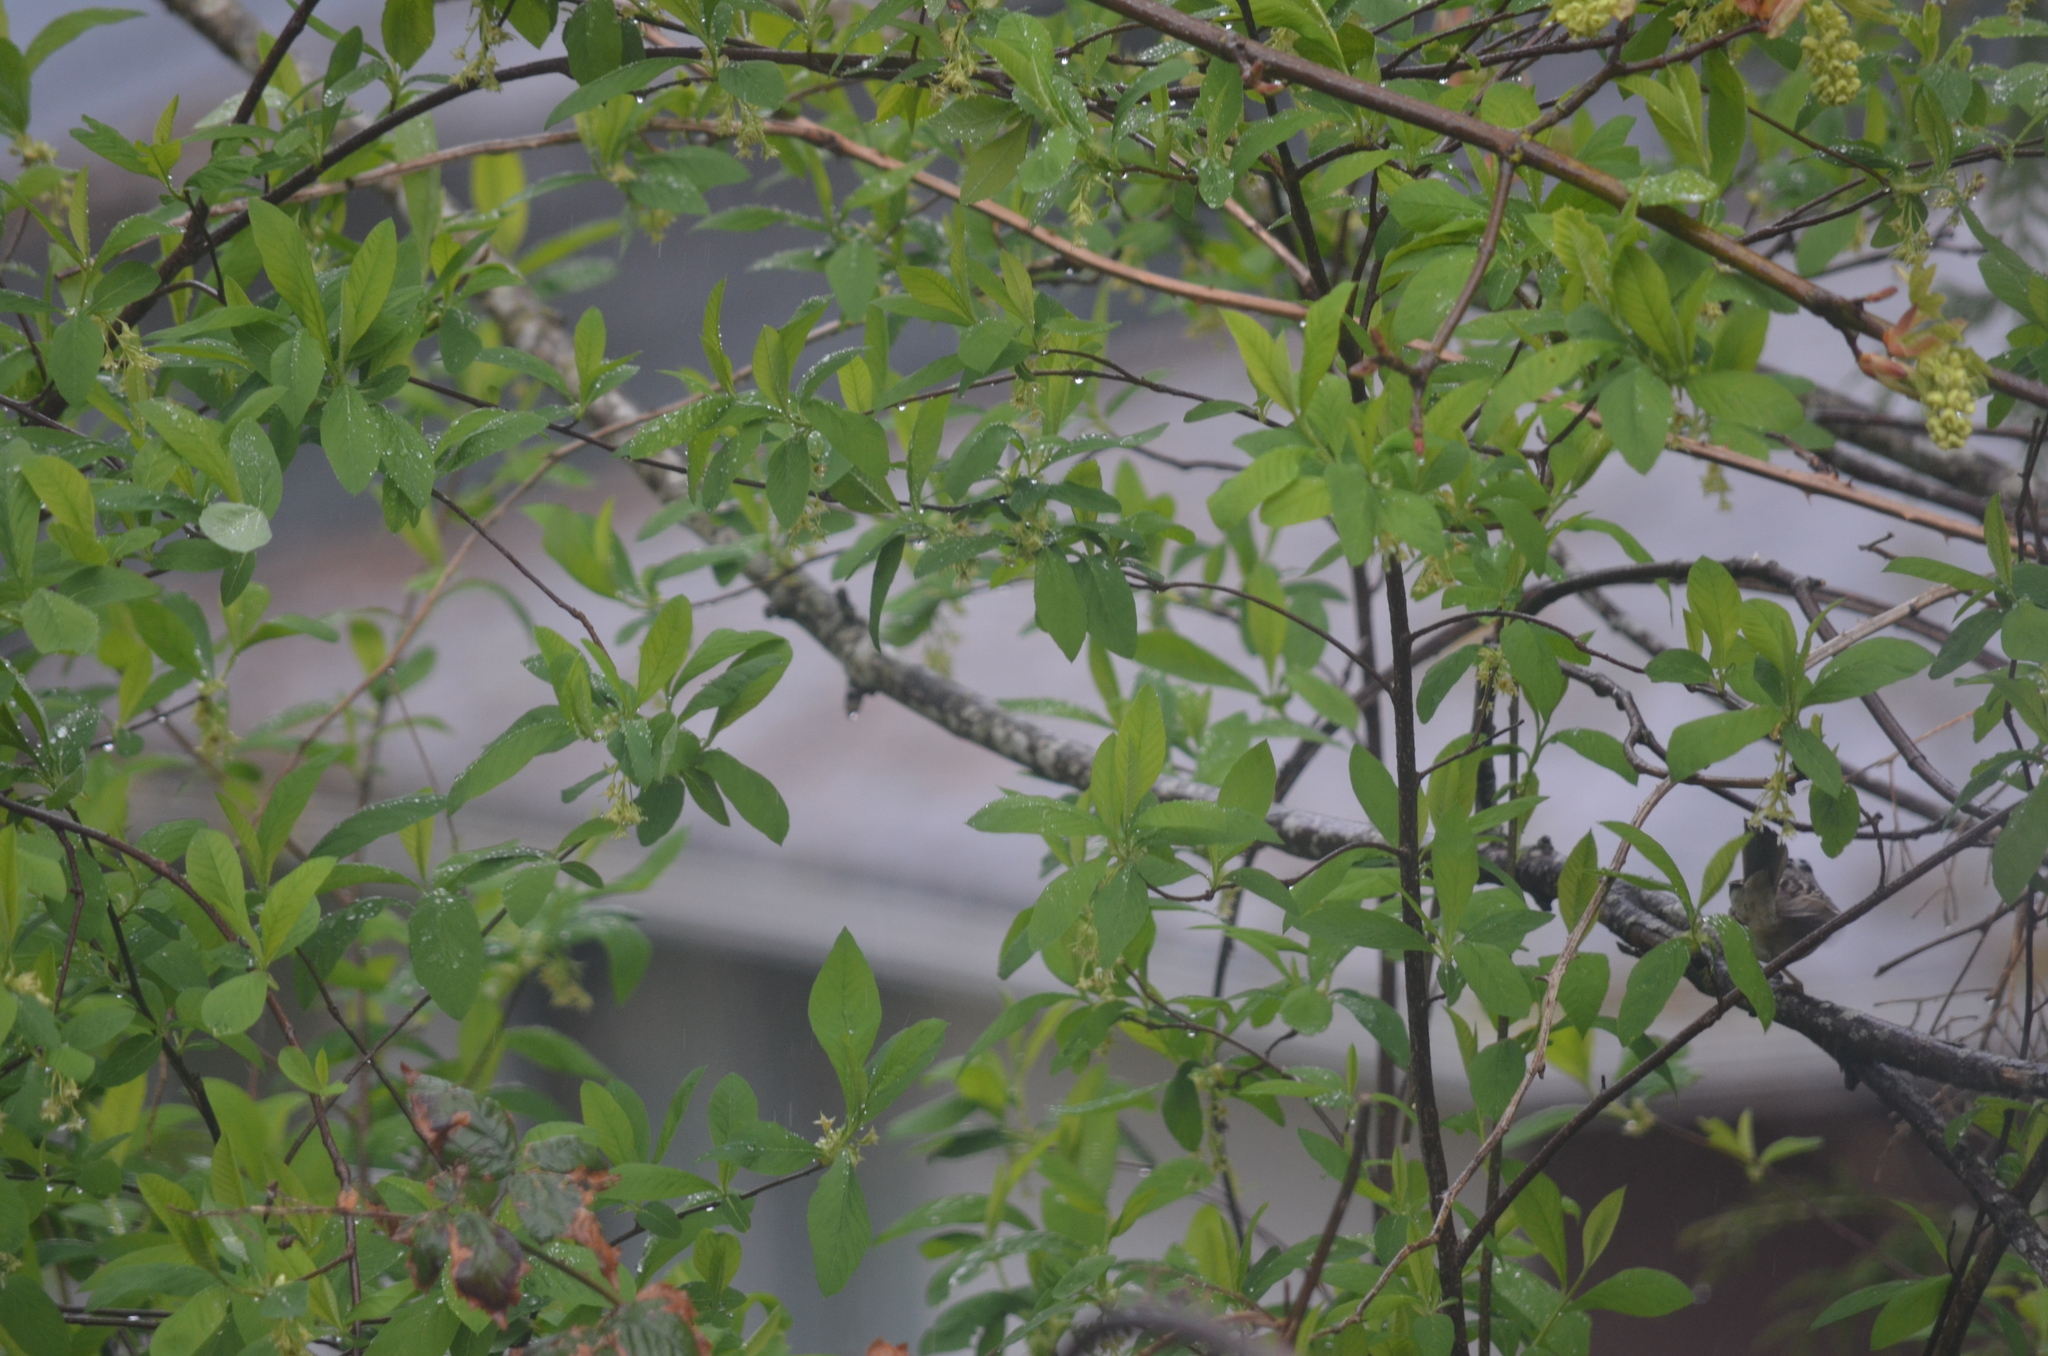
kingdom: Animalia
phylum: Chordata
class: Aves
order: Passeriformes
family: Passerellidae
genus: Zonotrichia
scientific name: Zonotrichia leucophrys
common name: White-crowned sparrow
